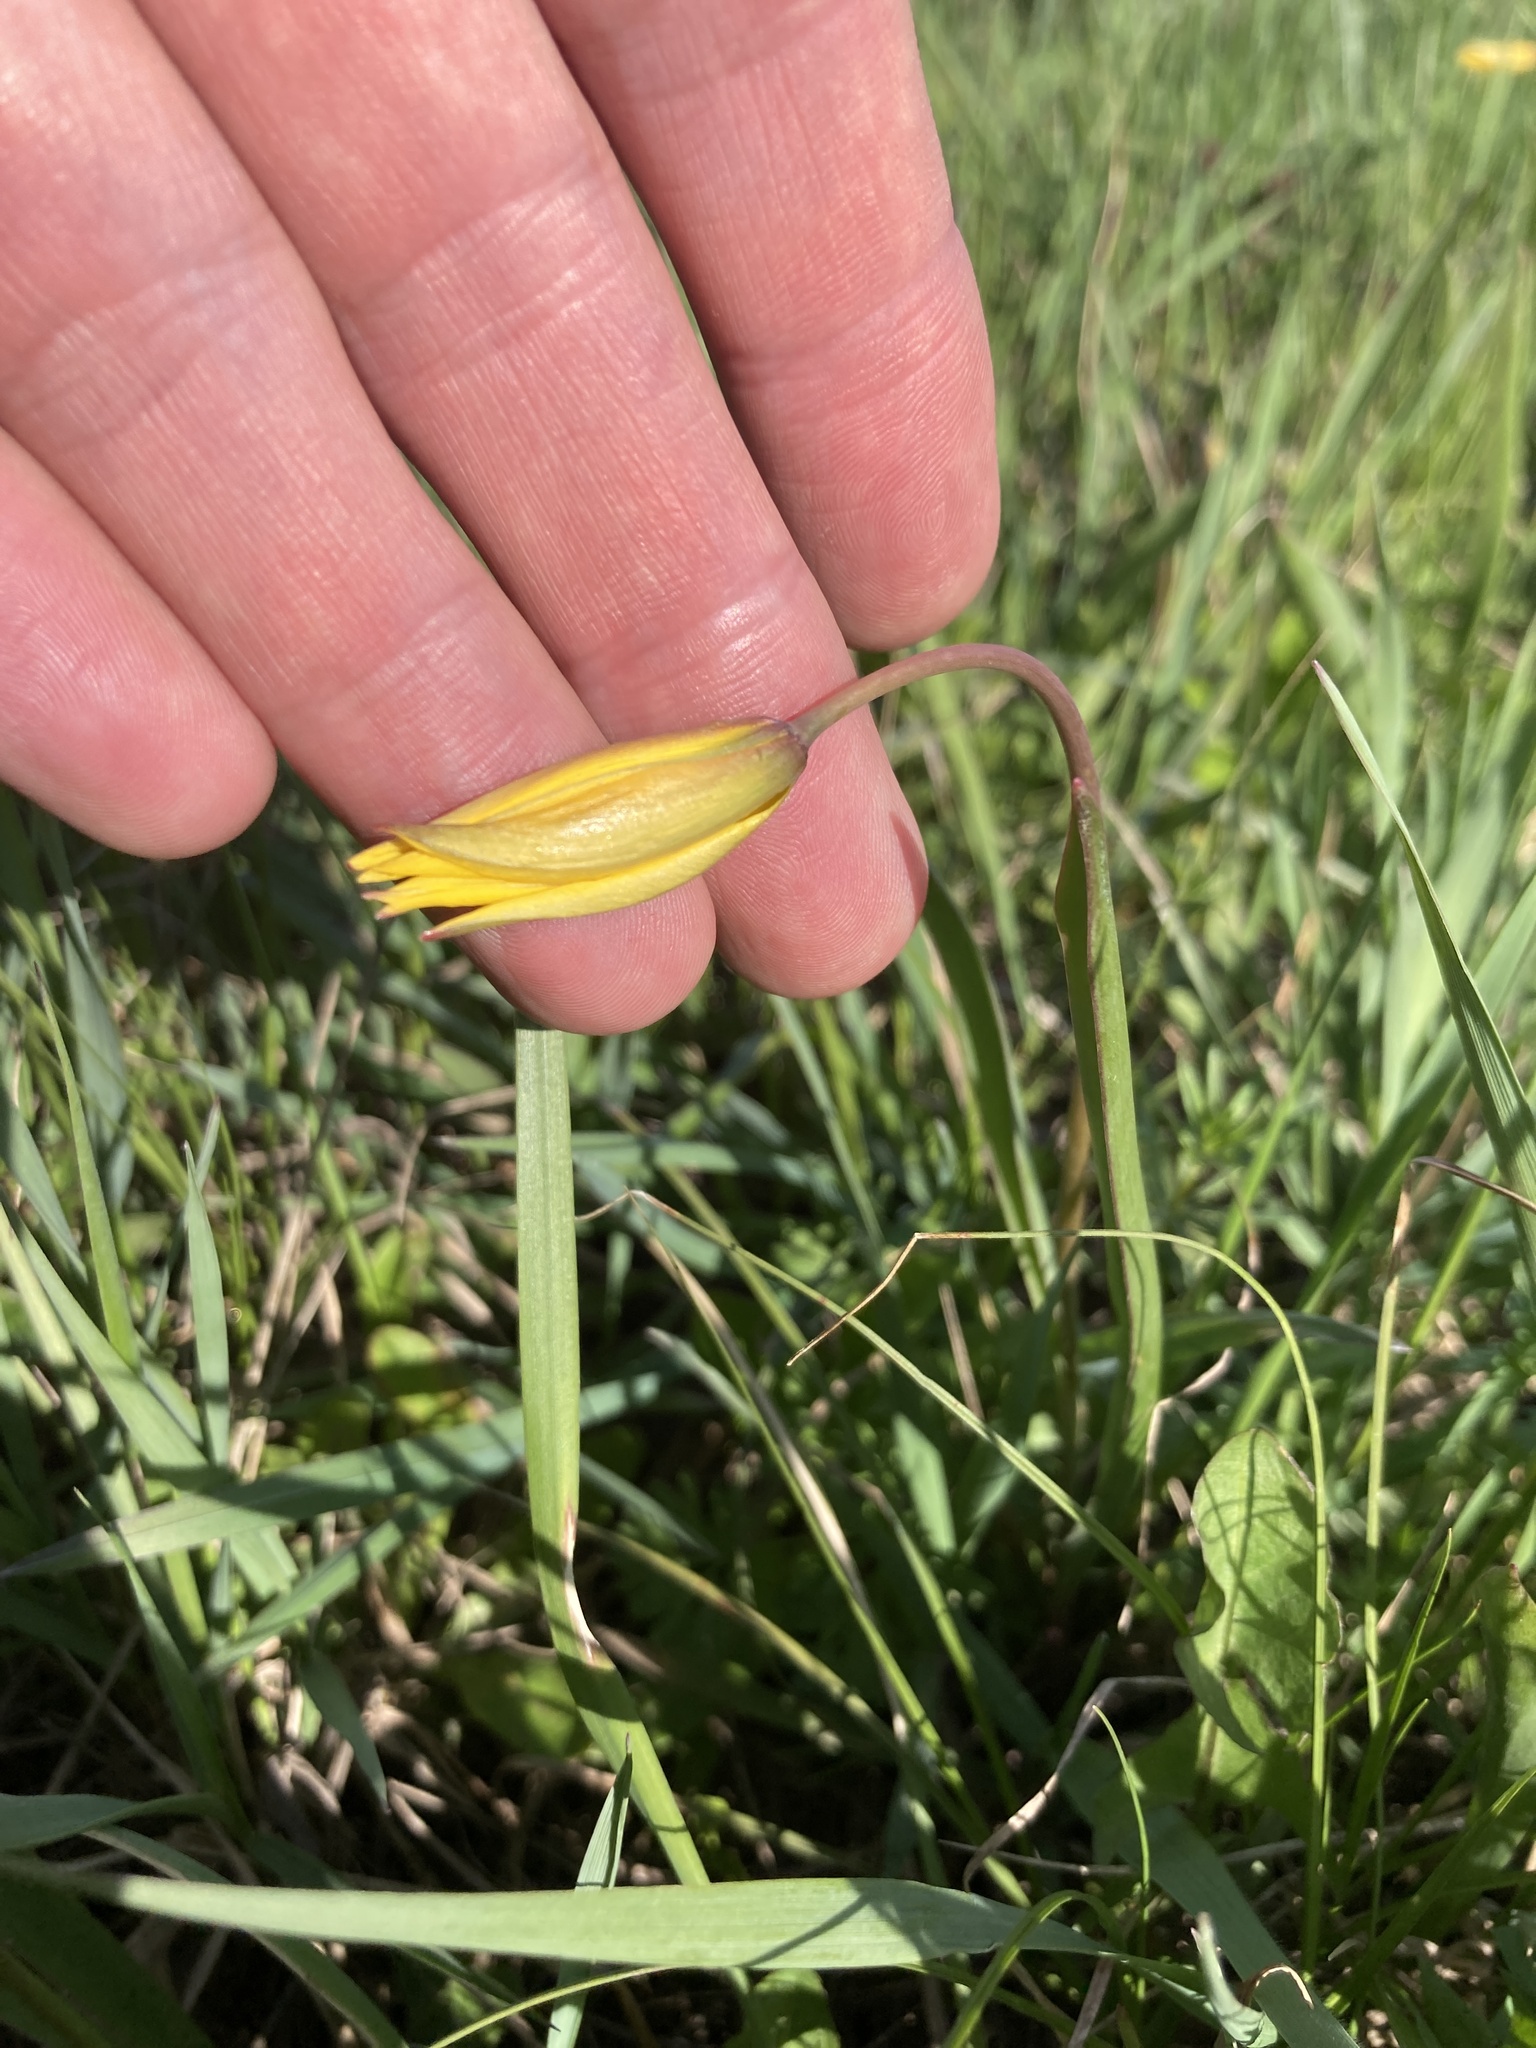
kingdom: Plantae
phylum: Tracheophyta
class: Liliopsida
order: Liliales
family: Liliaceae
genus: Tulipa
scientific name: Tulipa sylvestris
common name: Wild tulip
